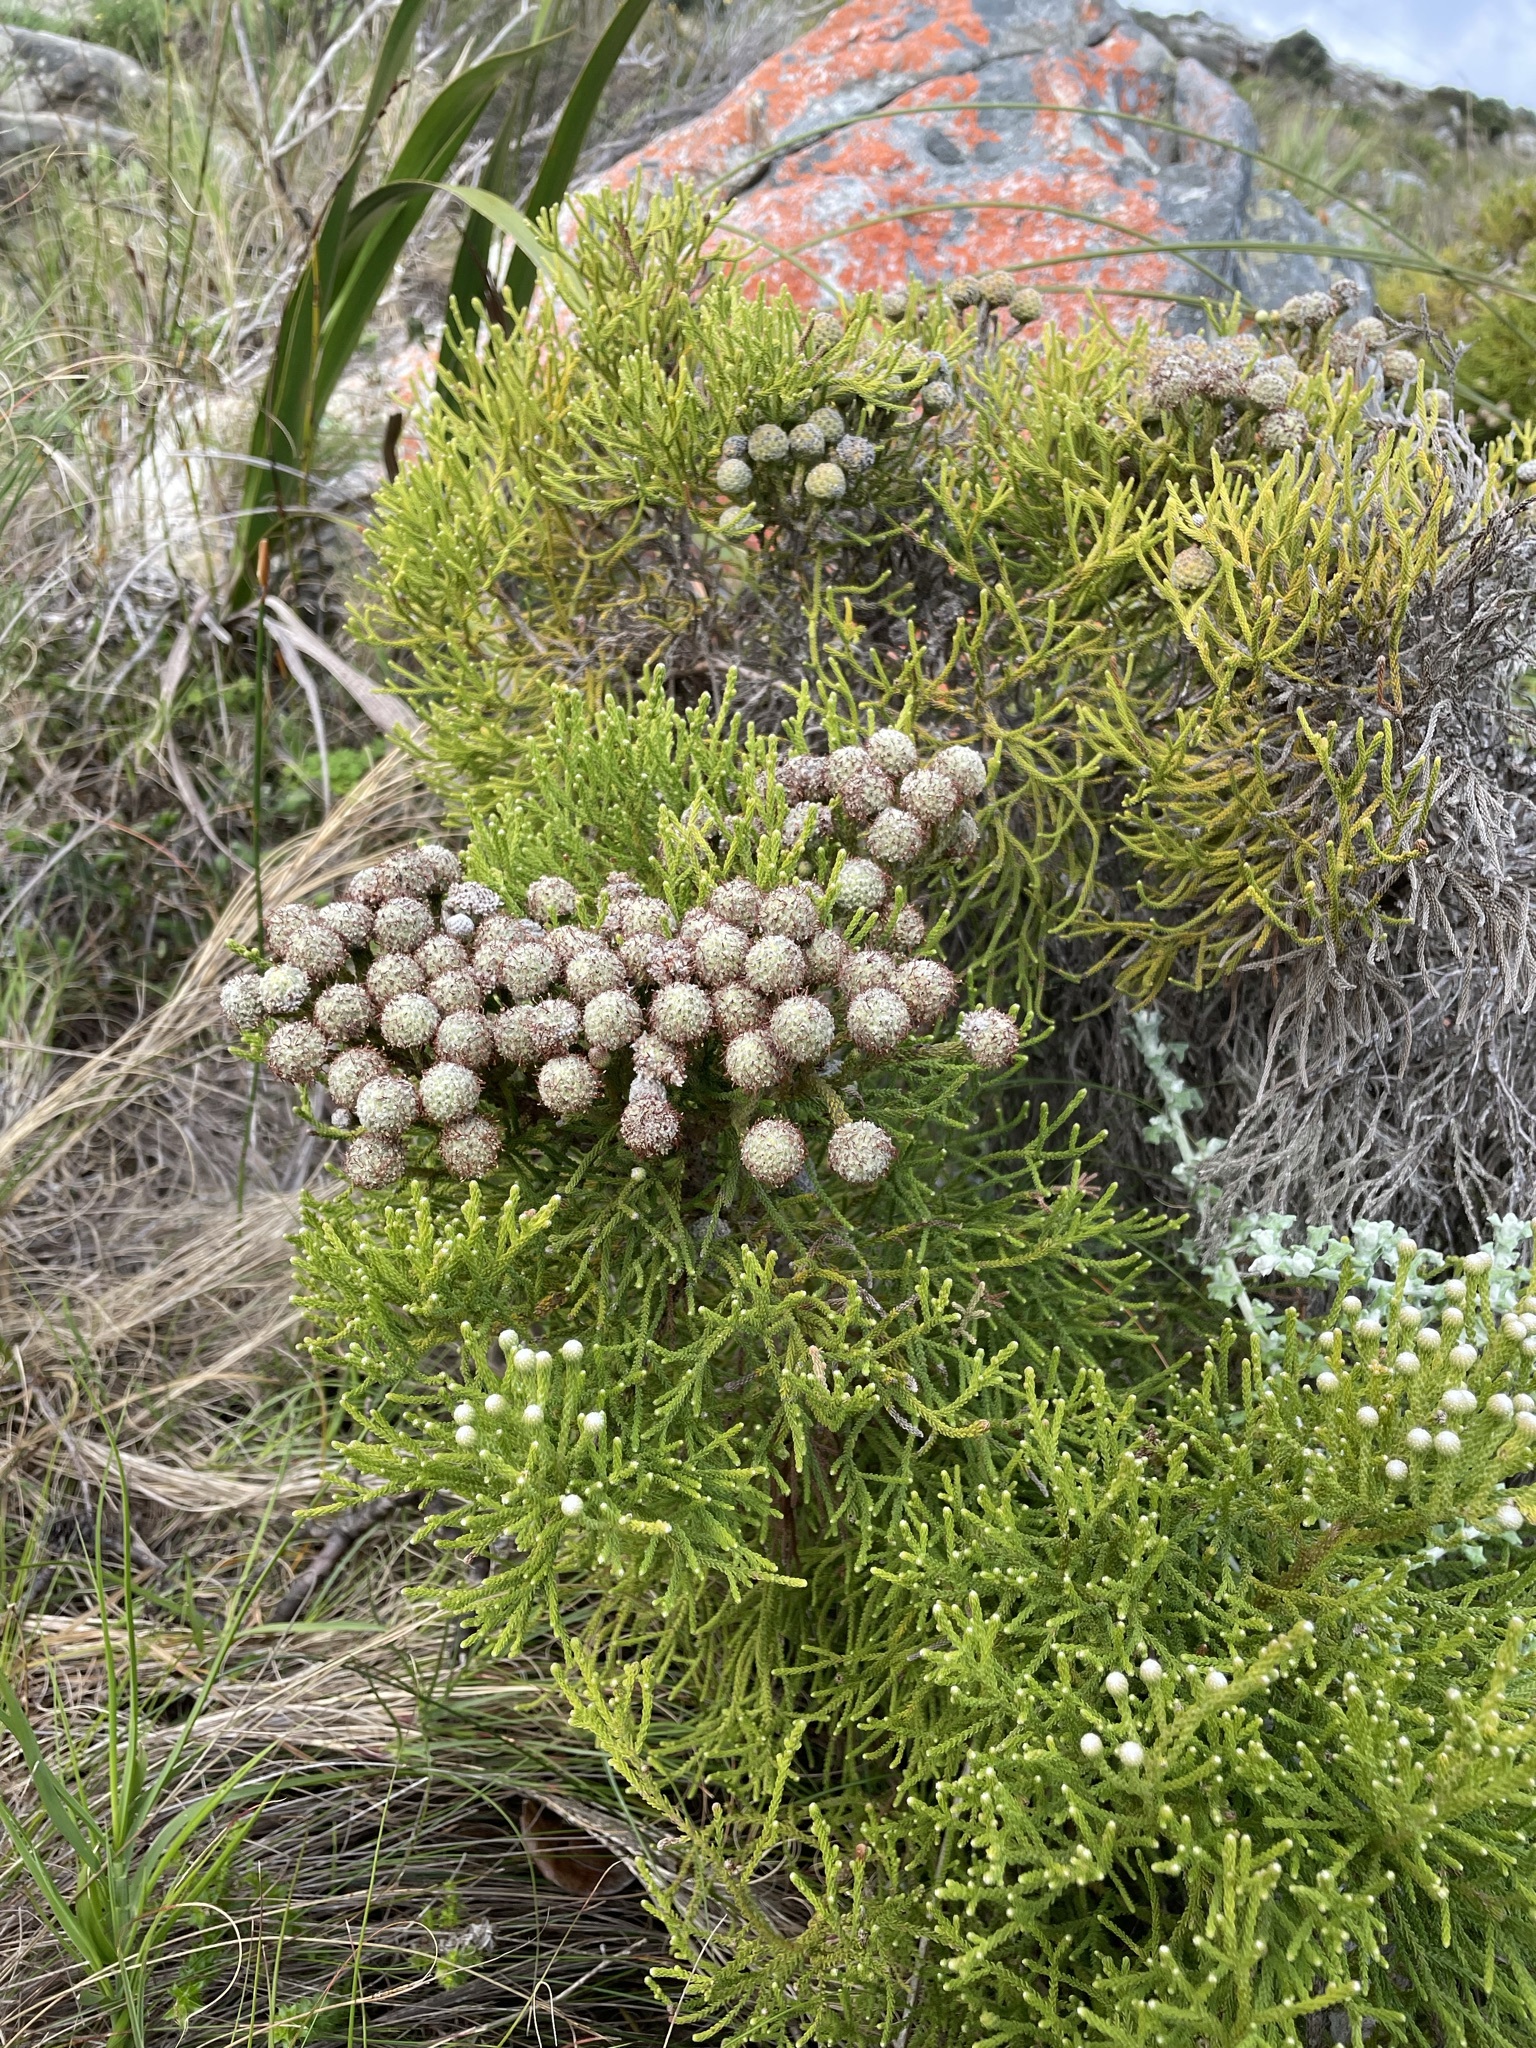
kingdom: Plantae
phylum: Tracheophyta
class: Magnoliopsida
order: Bruniales
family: Bruniaceae
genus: Brunia
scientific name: Brunia noduliflora
